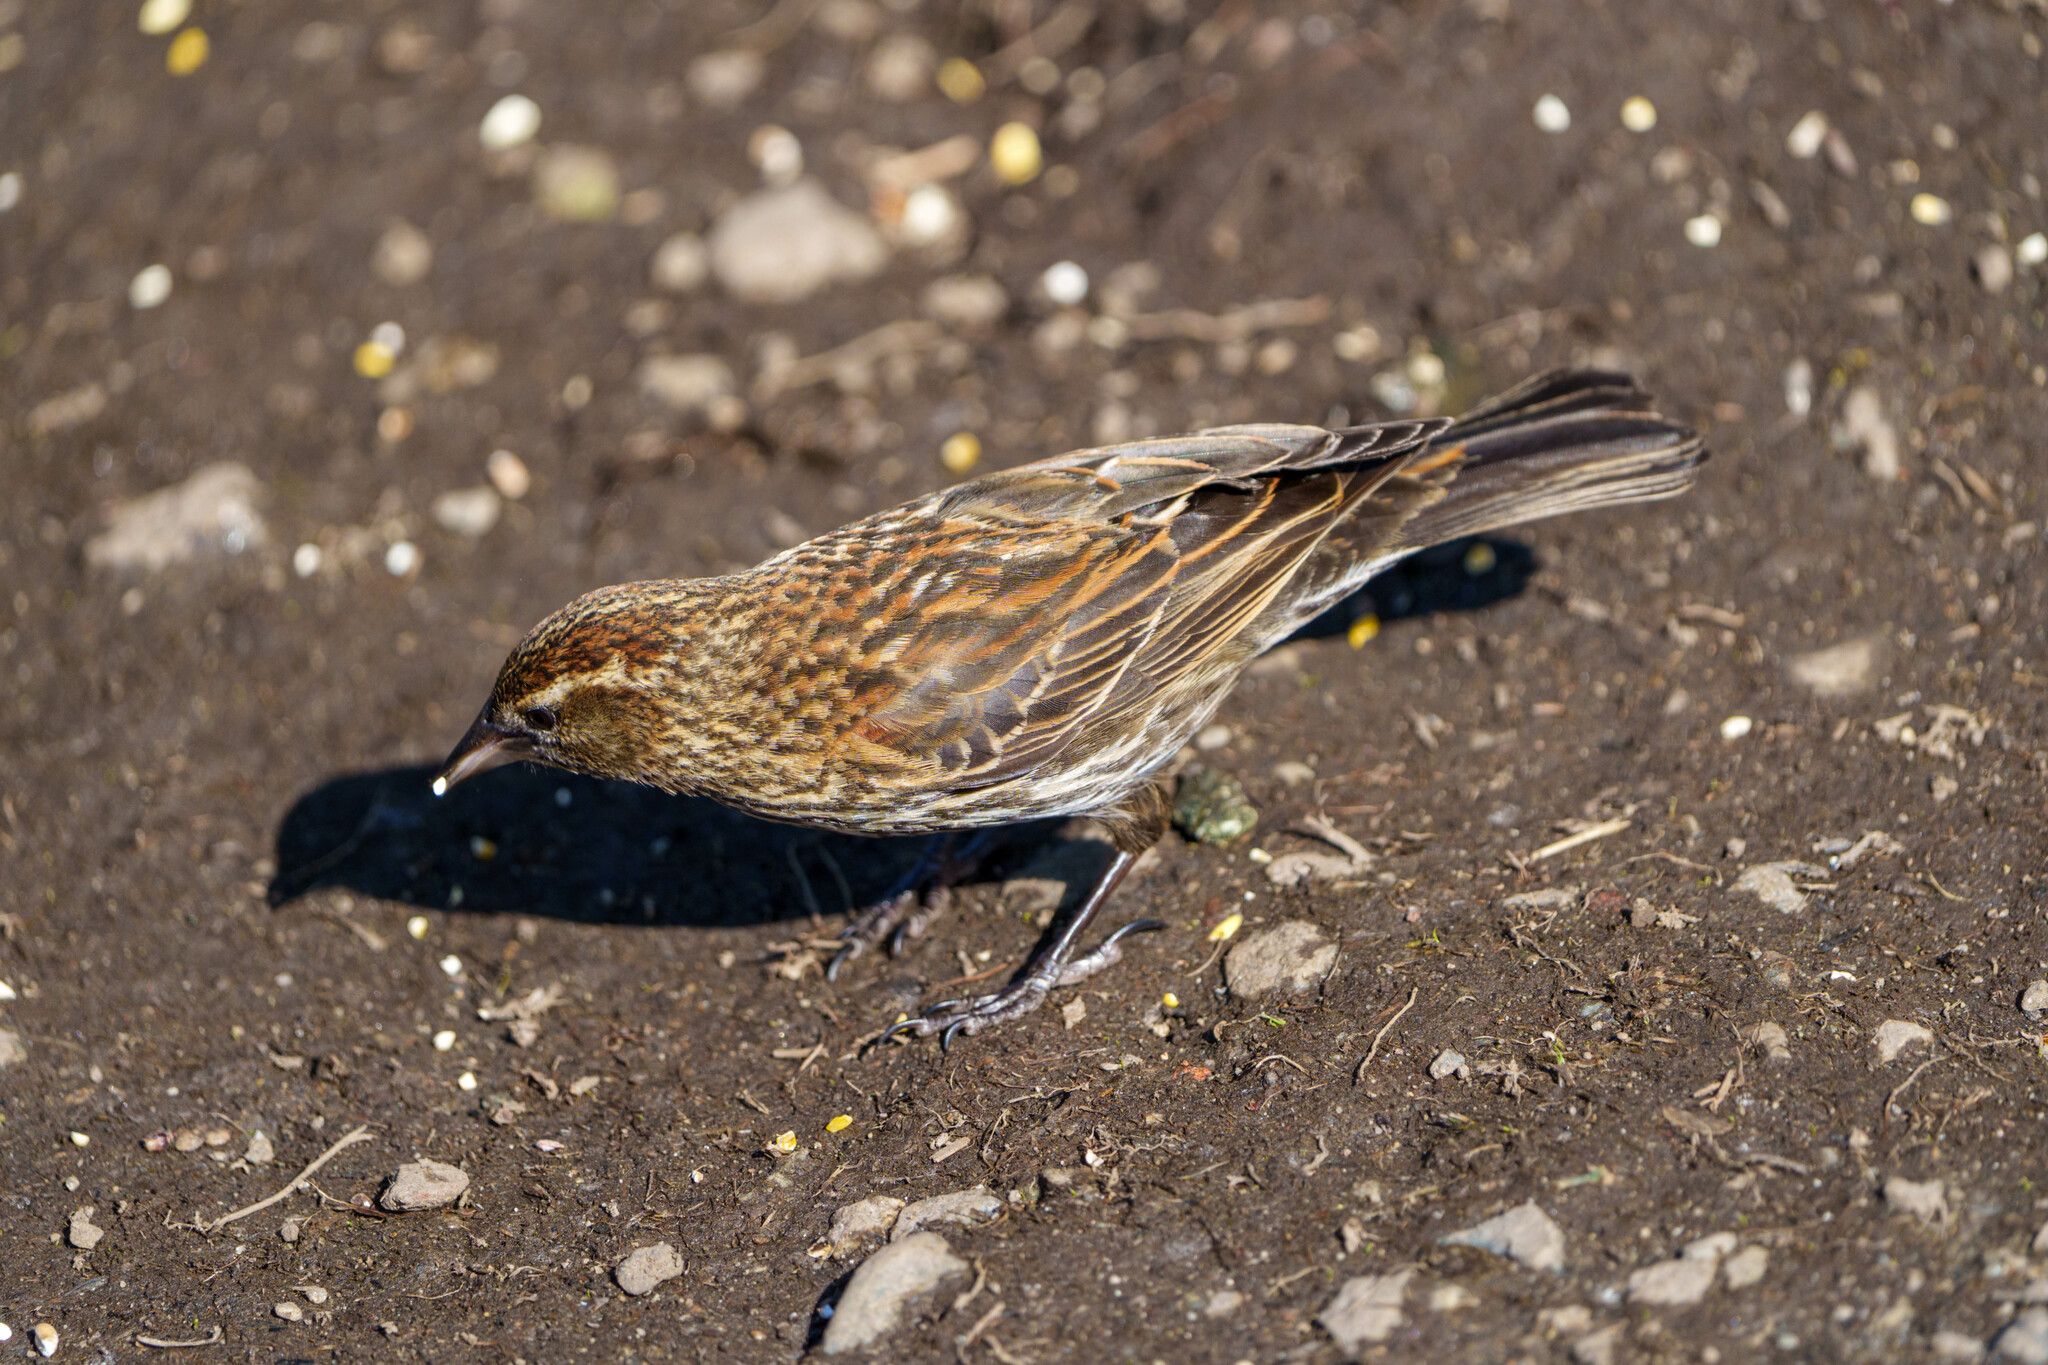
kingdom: Animalia
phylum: Chordata
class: Aves
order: Passeriformes
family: Icteridae
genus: Agelaius
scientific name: Agelaius phoeniceus
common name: Red-winged blackbird
